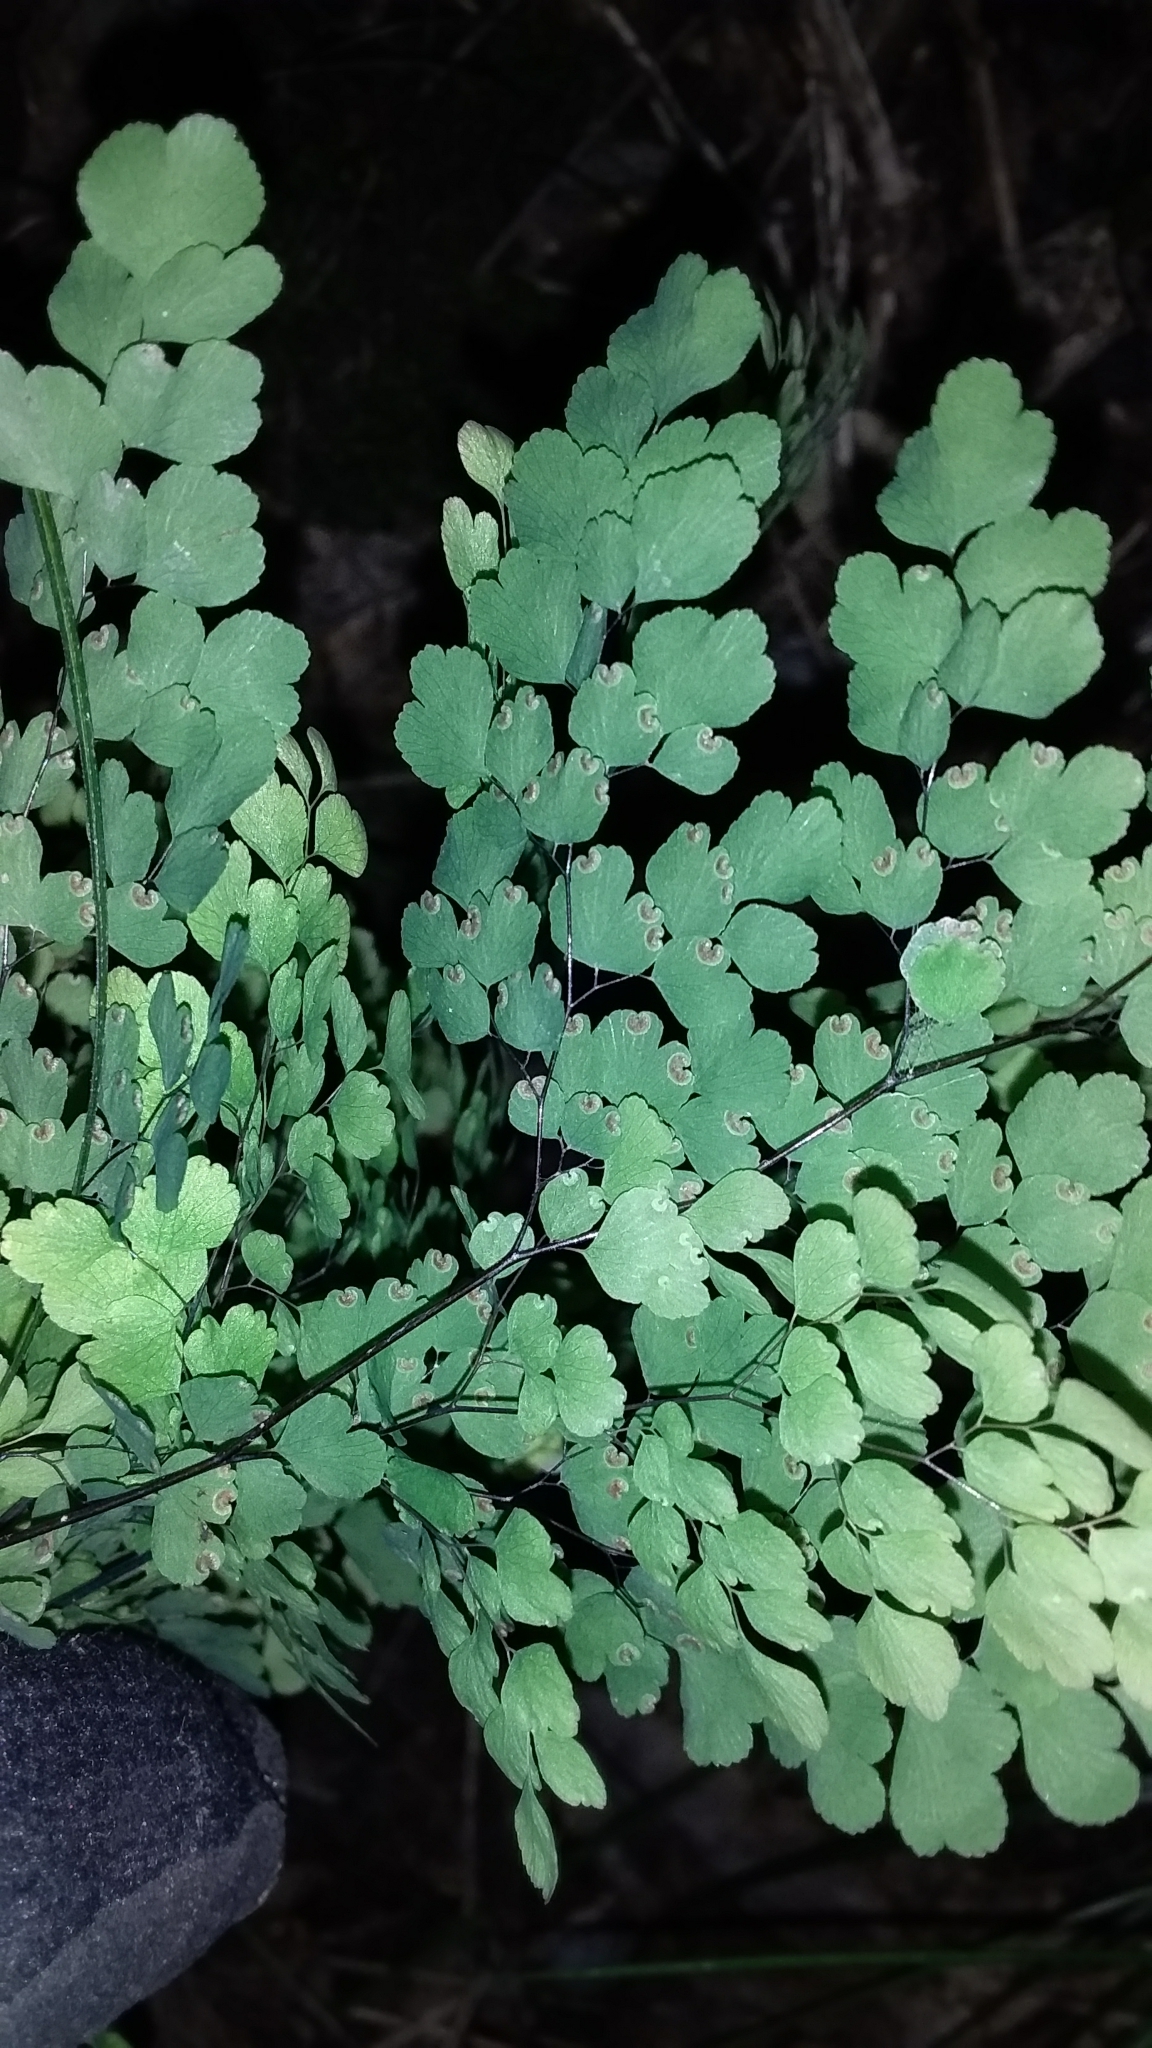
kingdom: Plantae
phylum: Tracheophyta
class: Polypodiopsida
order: Polypodiales
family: Pteridaceae
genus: Adiantum
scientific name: Adiantum raddianum
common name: Delta maidenhair fern
